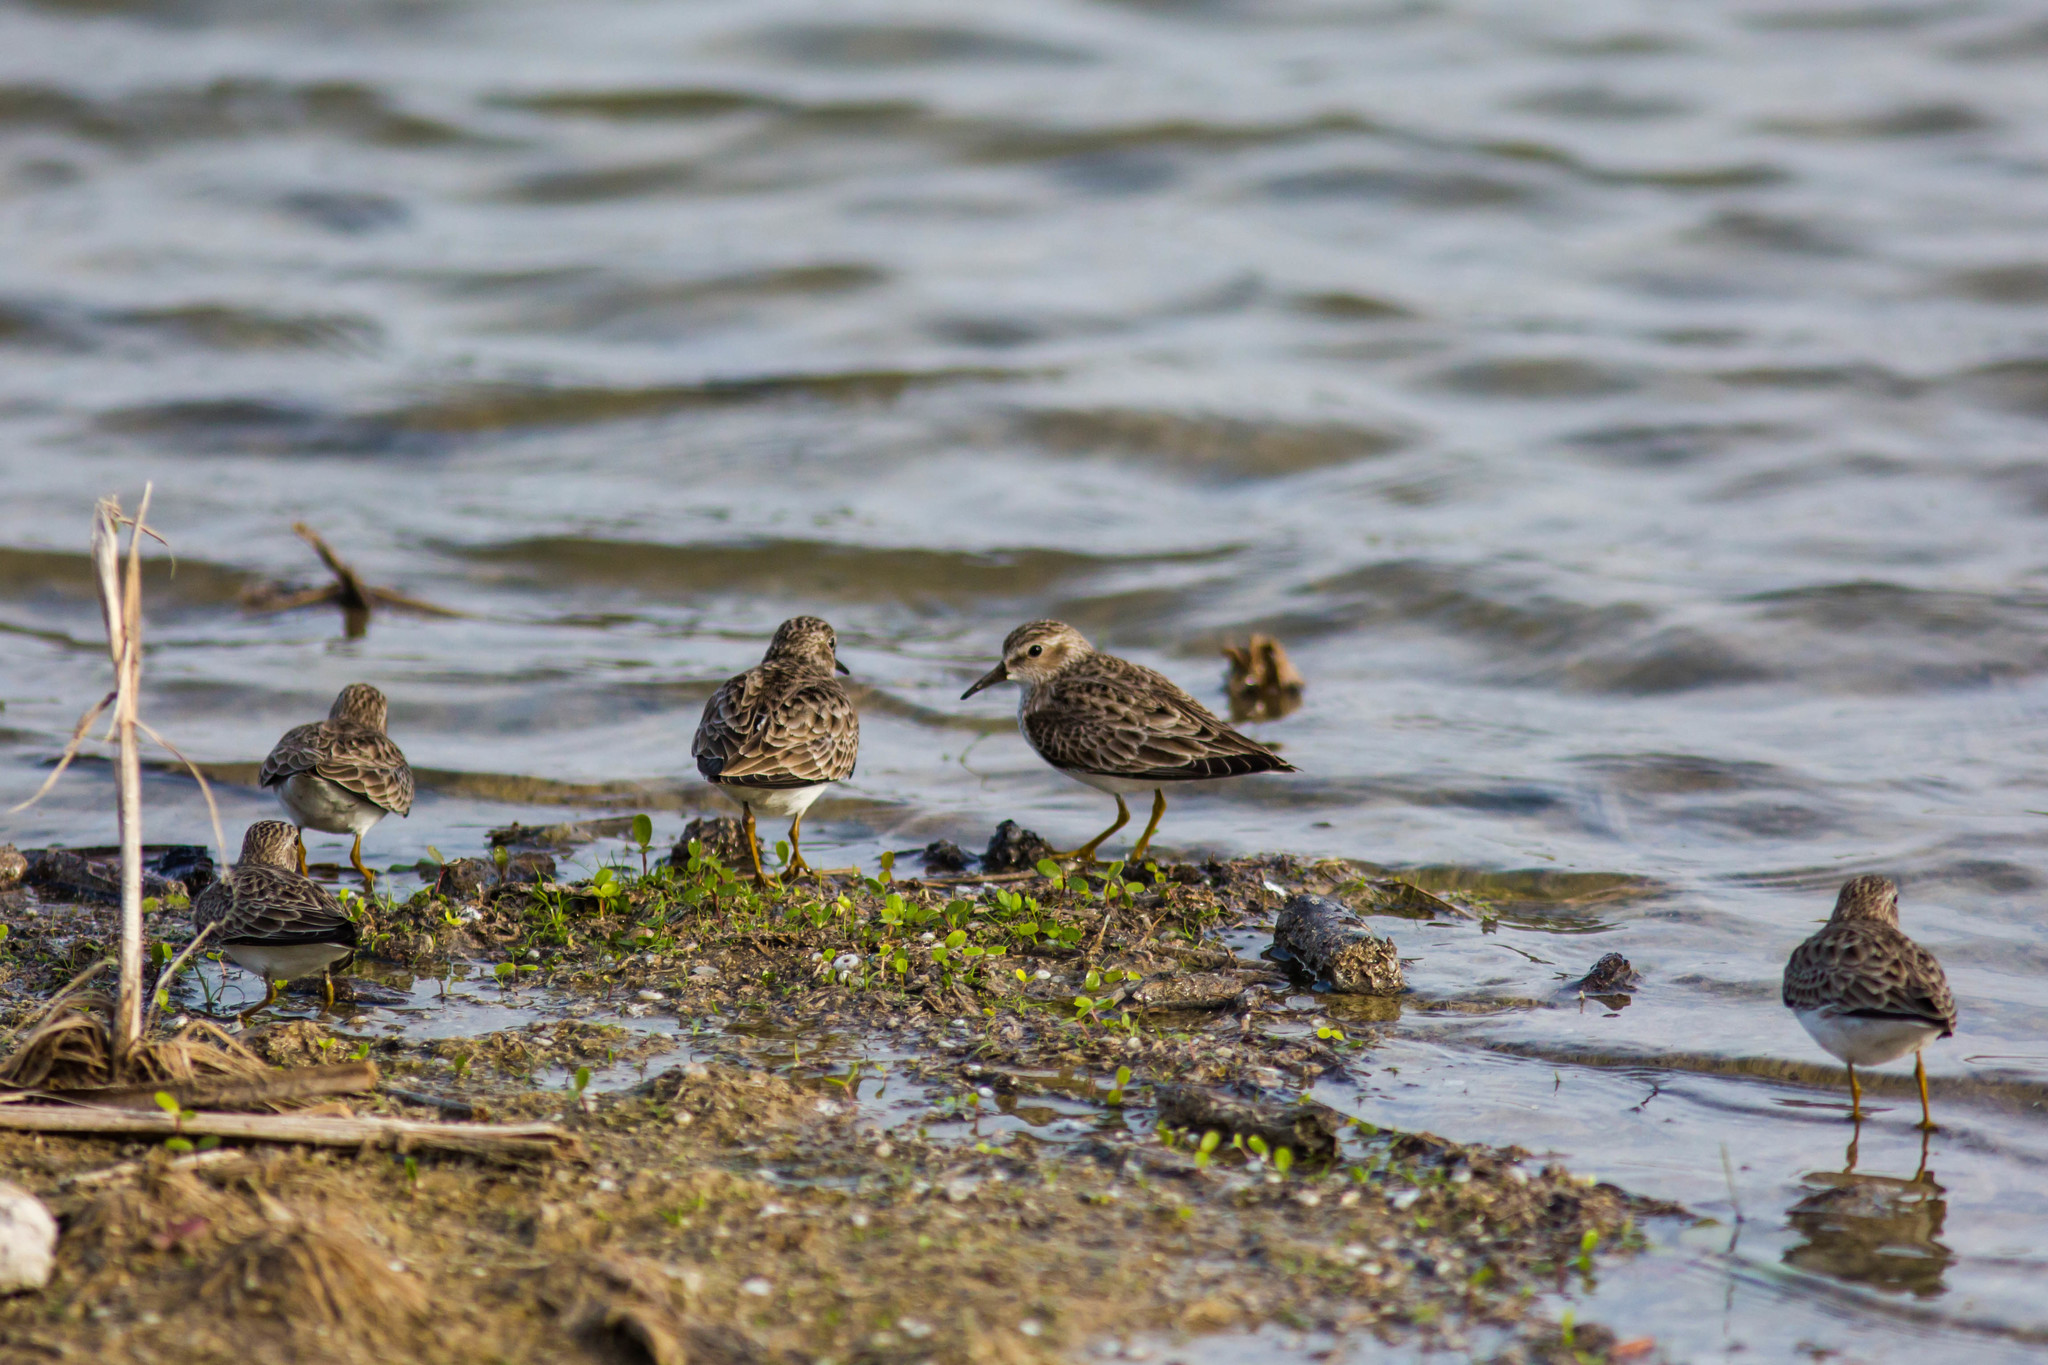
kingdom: Animalia
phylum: Chordata
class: Aves
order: Charadriiformes
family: Scolopacidae
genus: Calidris
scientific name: Calidris minutilla
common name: Least sandpiper
